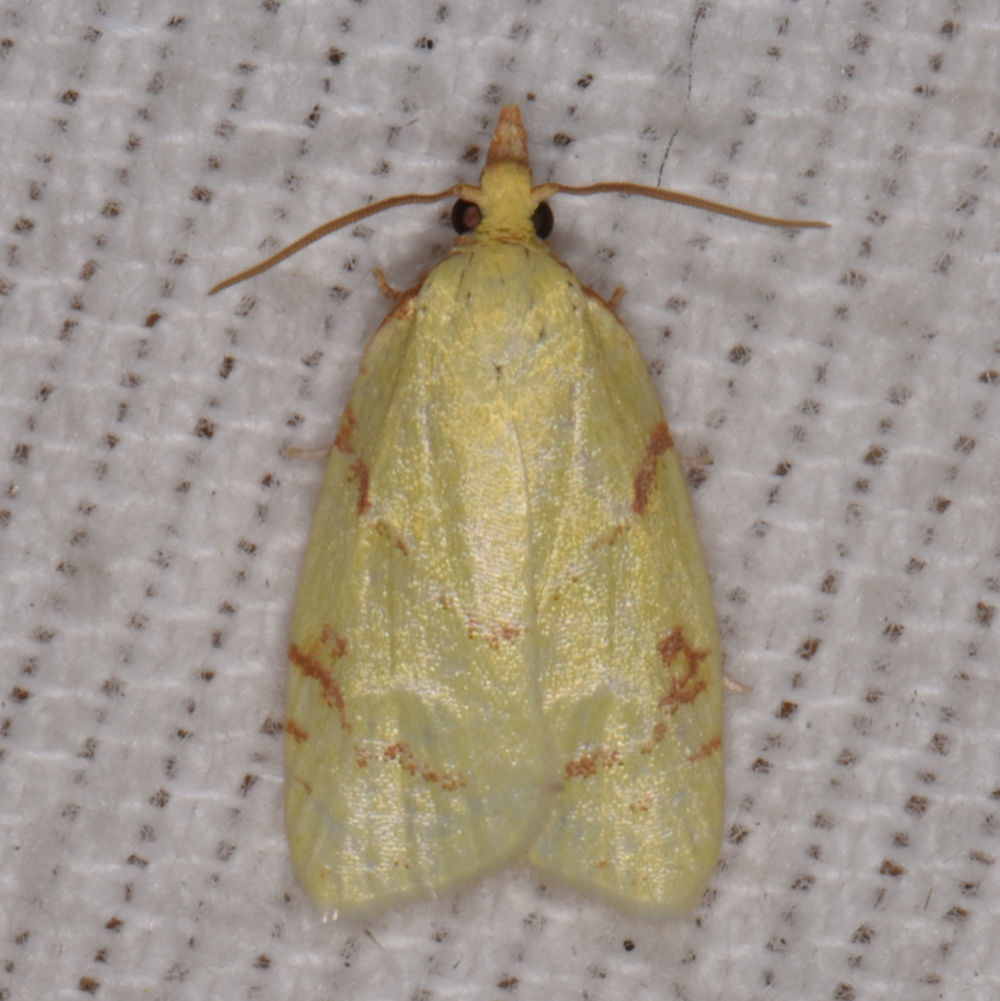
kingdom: Animalia
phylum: Arthropoda
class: Insecta
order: Lepidoptera
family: Tortricidae
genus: Cenopis
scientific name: Cenopis pettitana
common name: Maple-basswood leafroller moth
